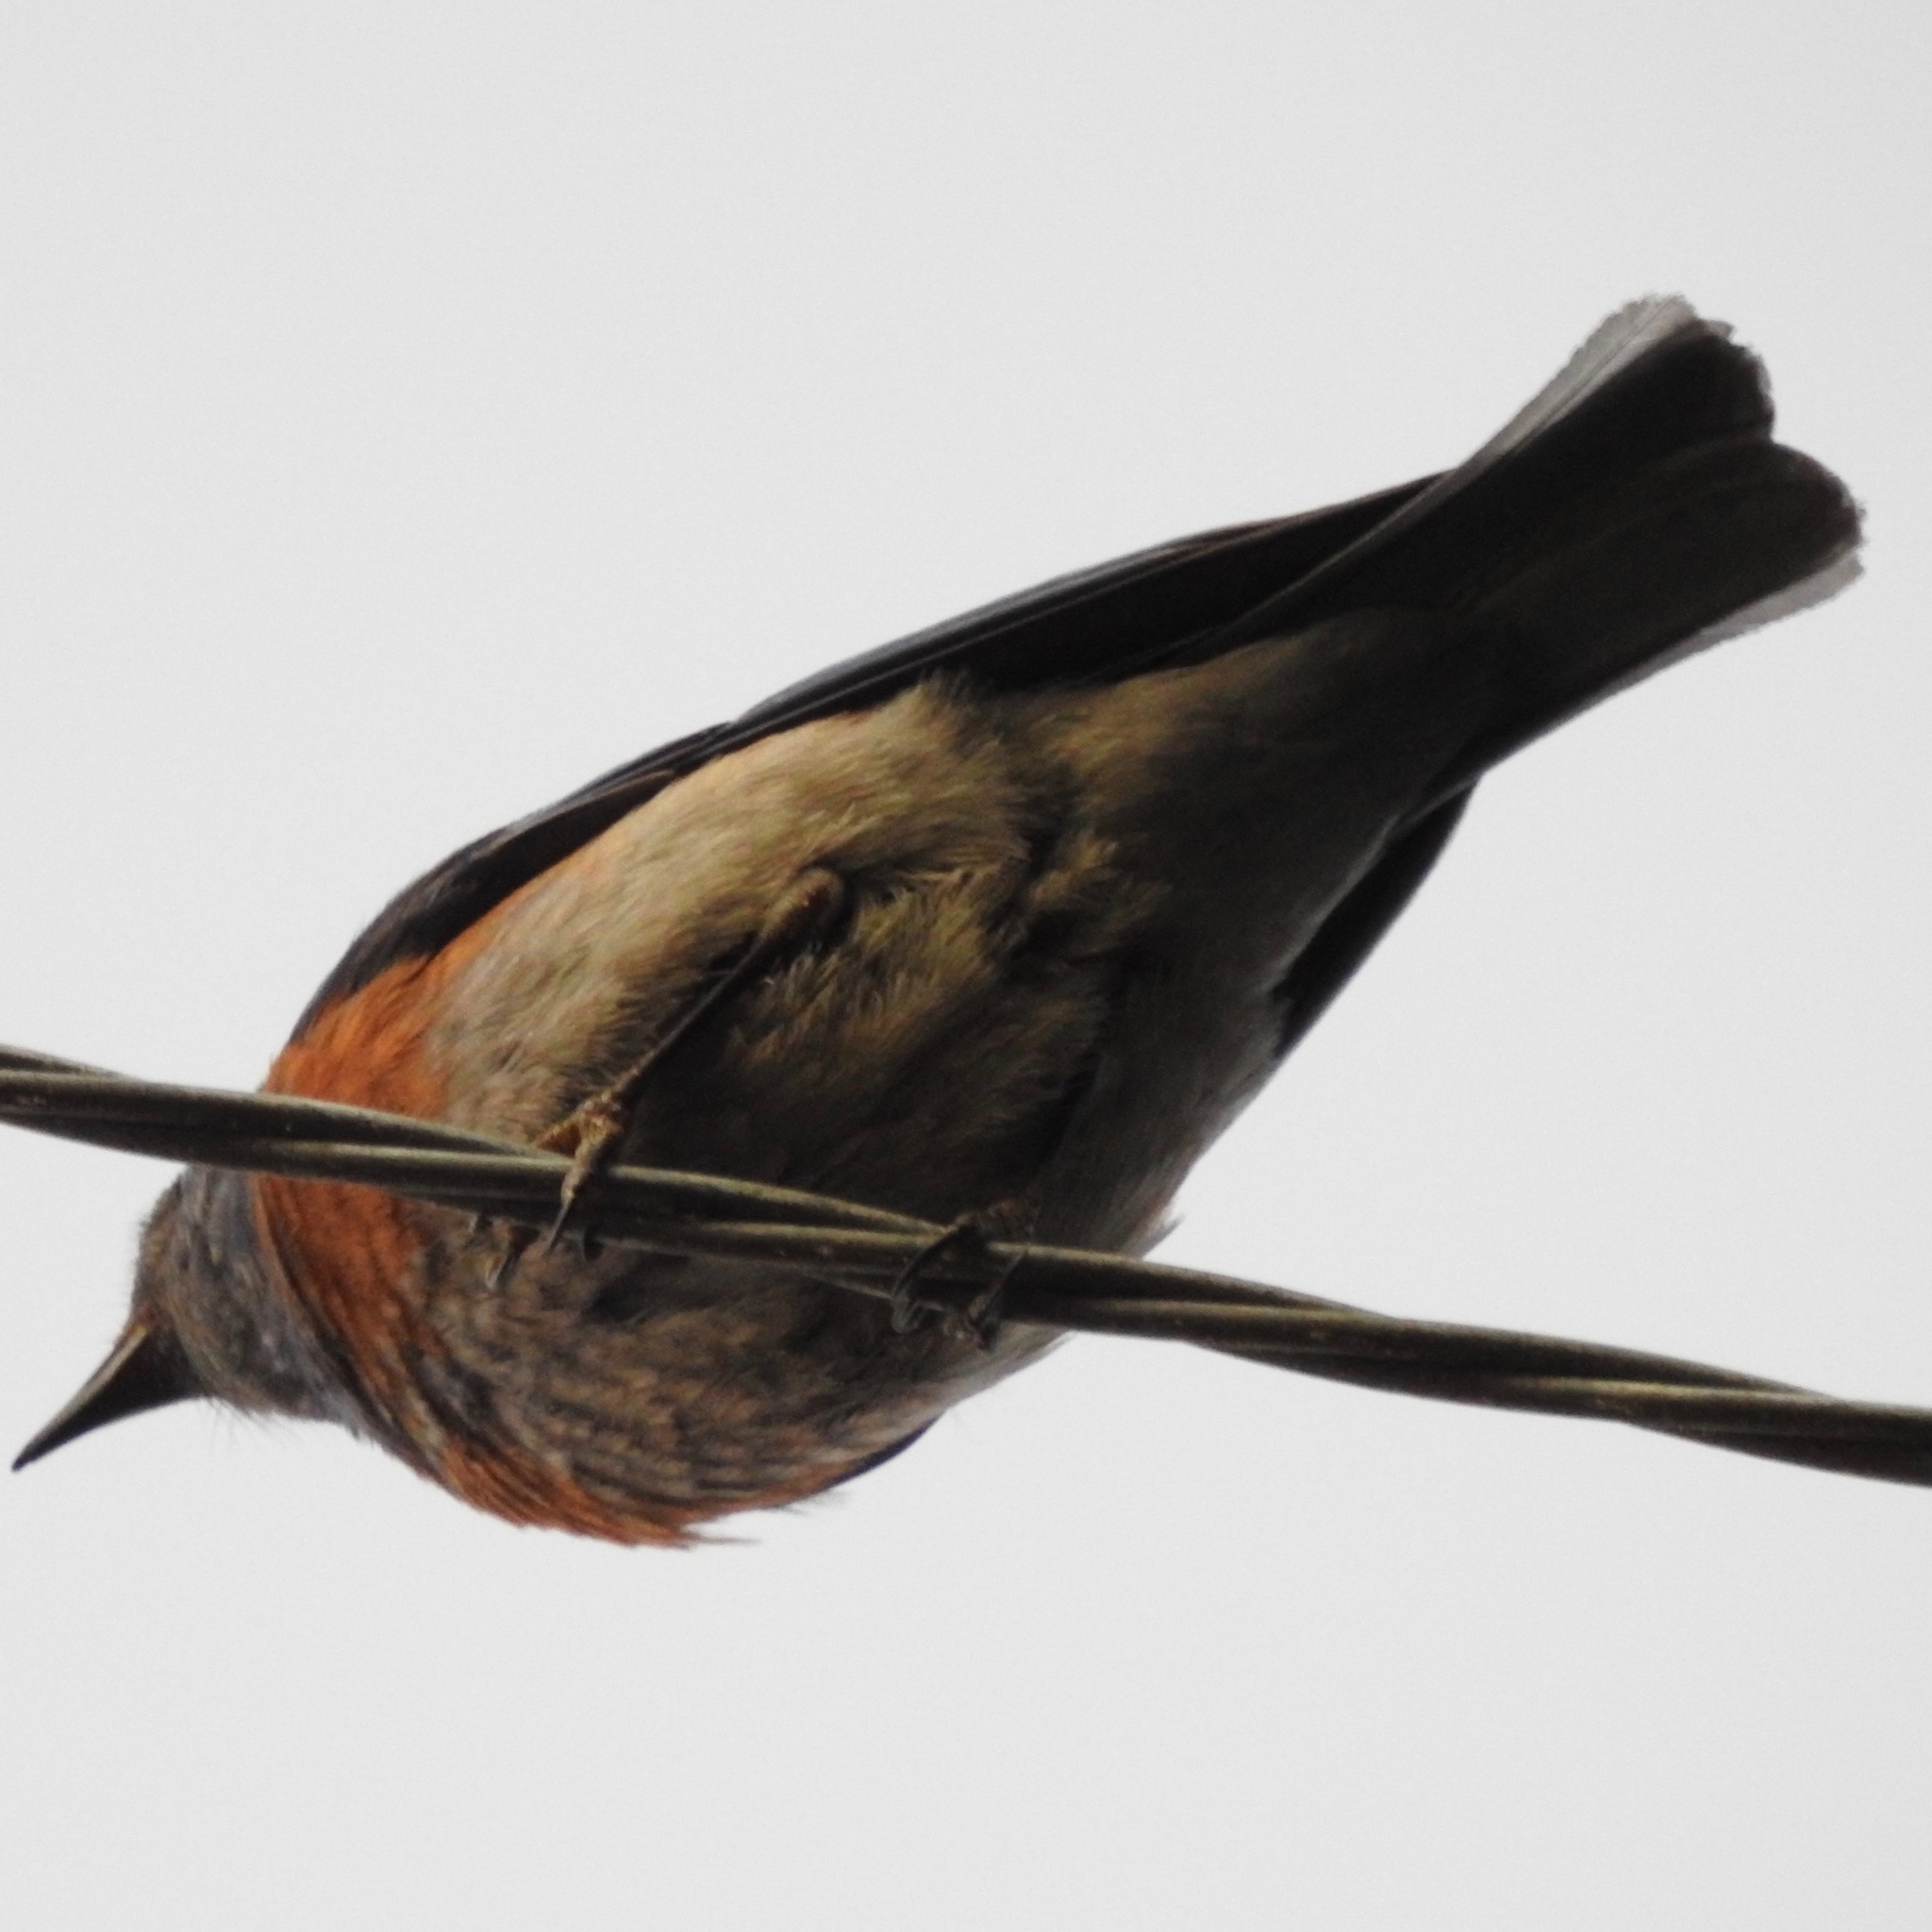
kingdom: Animalia
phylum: Chordata
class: Aves
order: Passeriformes
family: Turdidae
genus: Sialia
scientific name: Sialia mexicana
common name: Western bluebird
